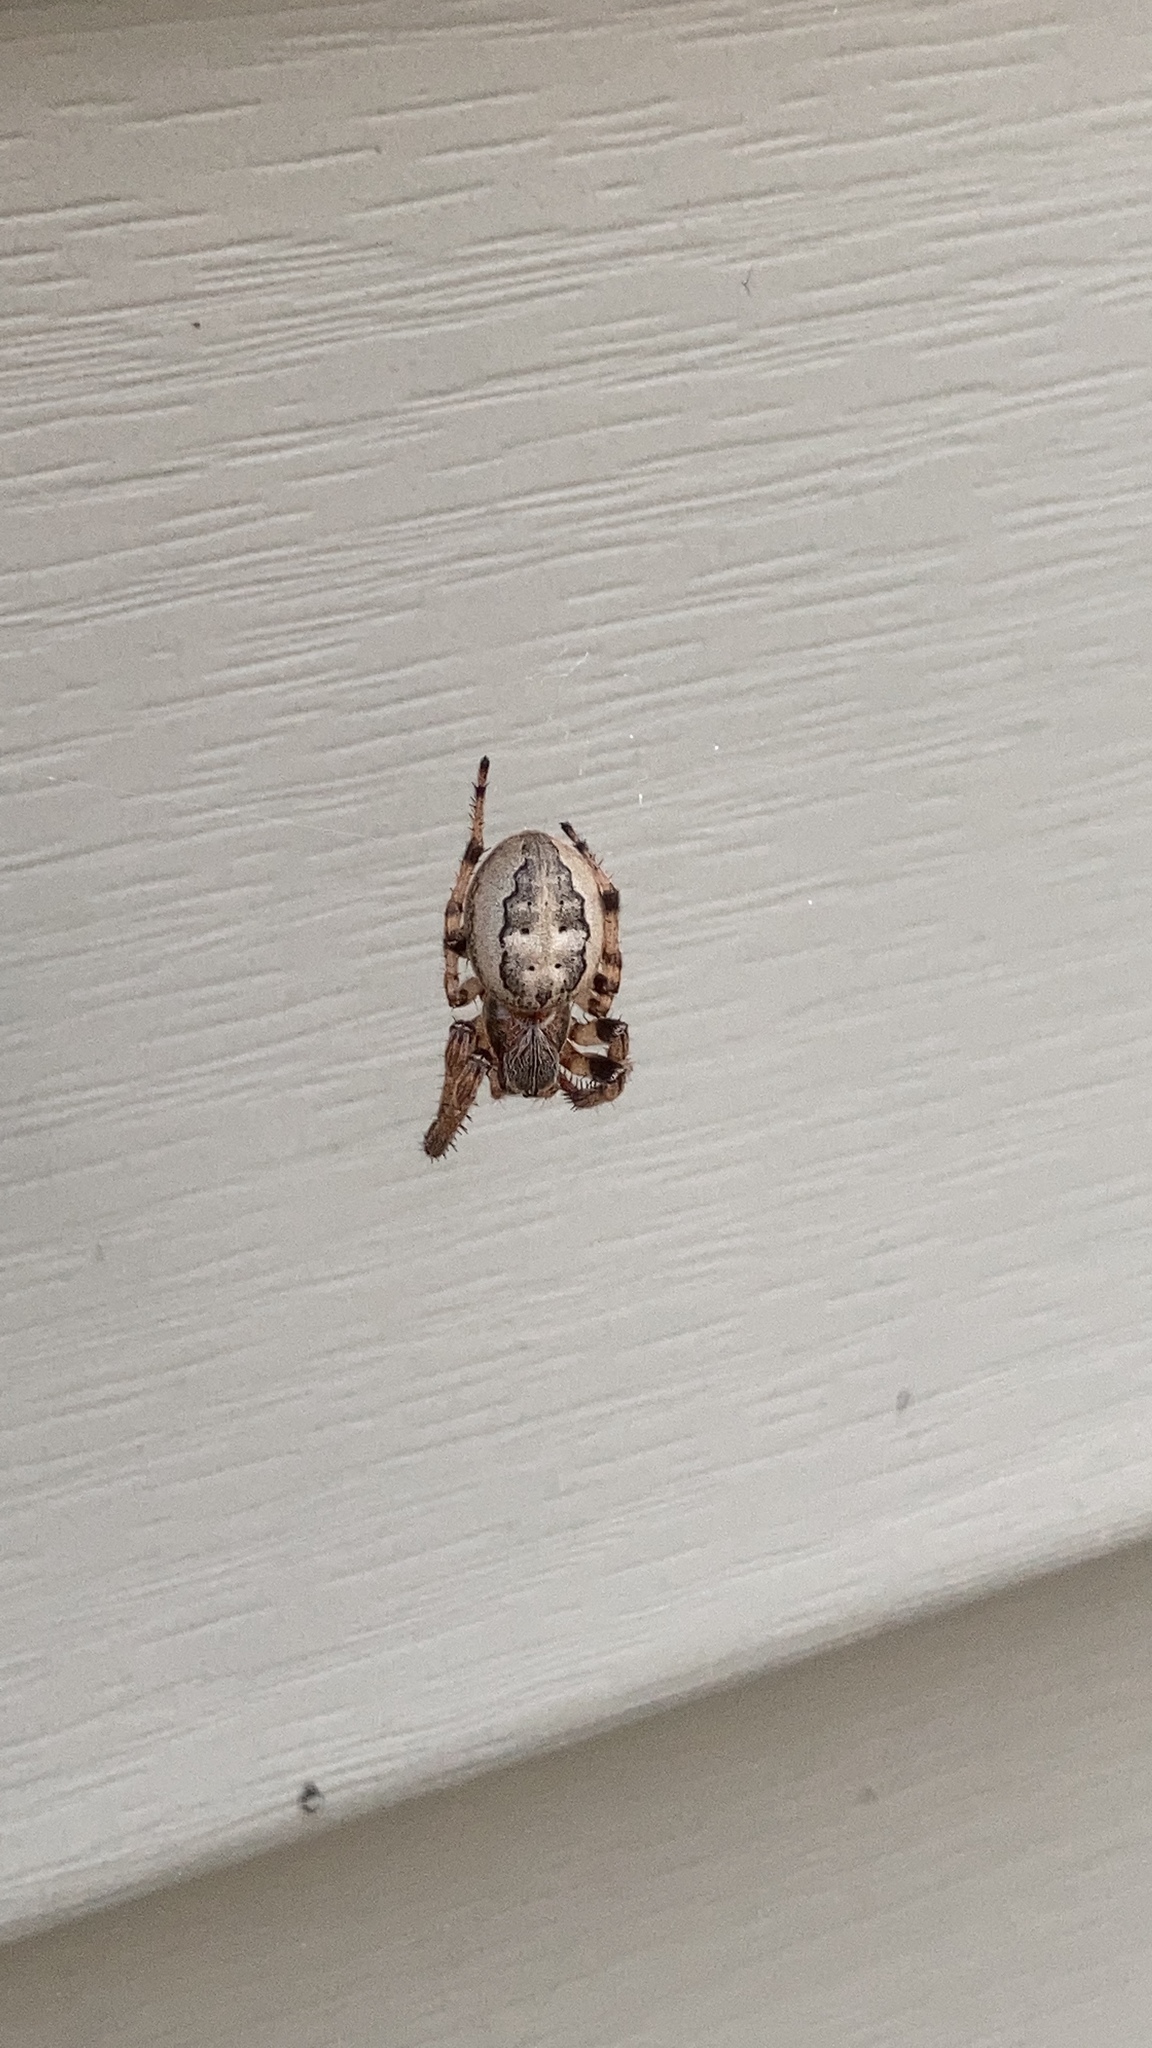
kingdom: Animalia
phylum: Arthropoda
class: Arachnida
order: Araneae
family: Araneidae
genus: Larinioides
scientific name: Larinioides cornutus
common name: Furrow orbweaver
